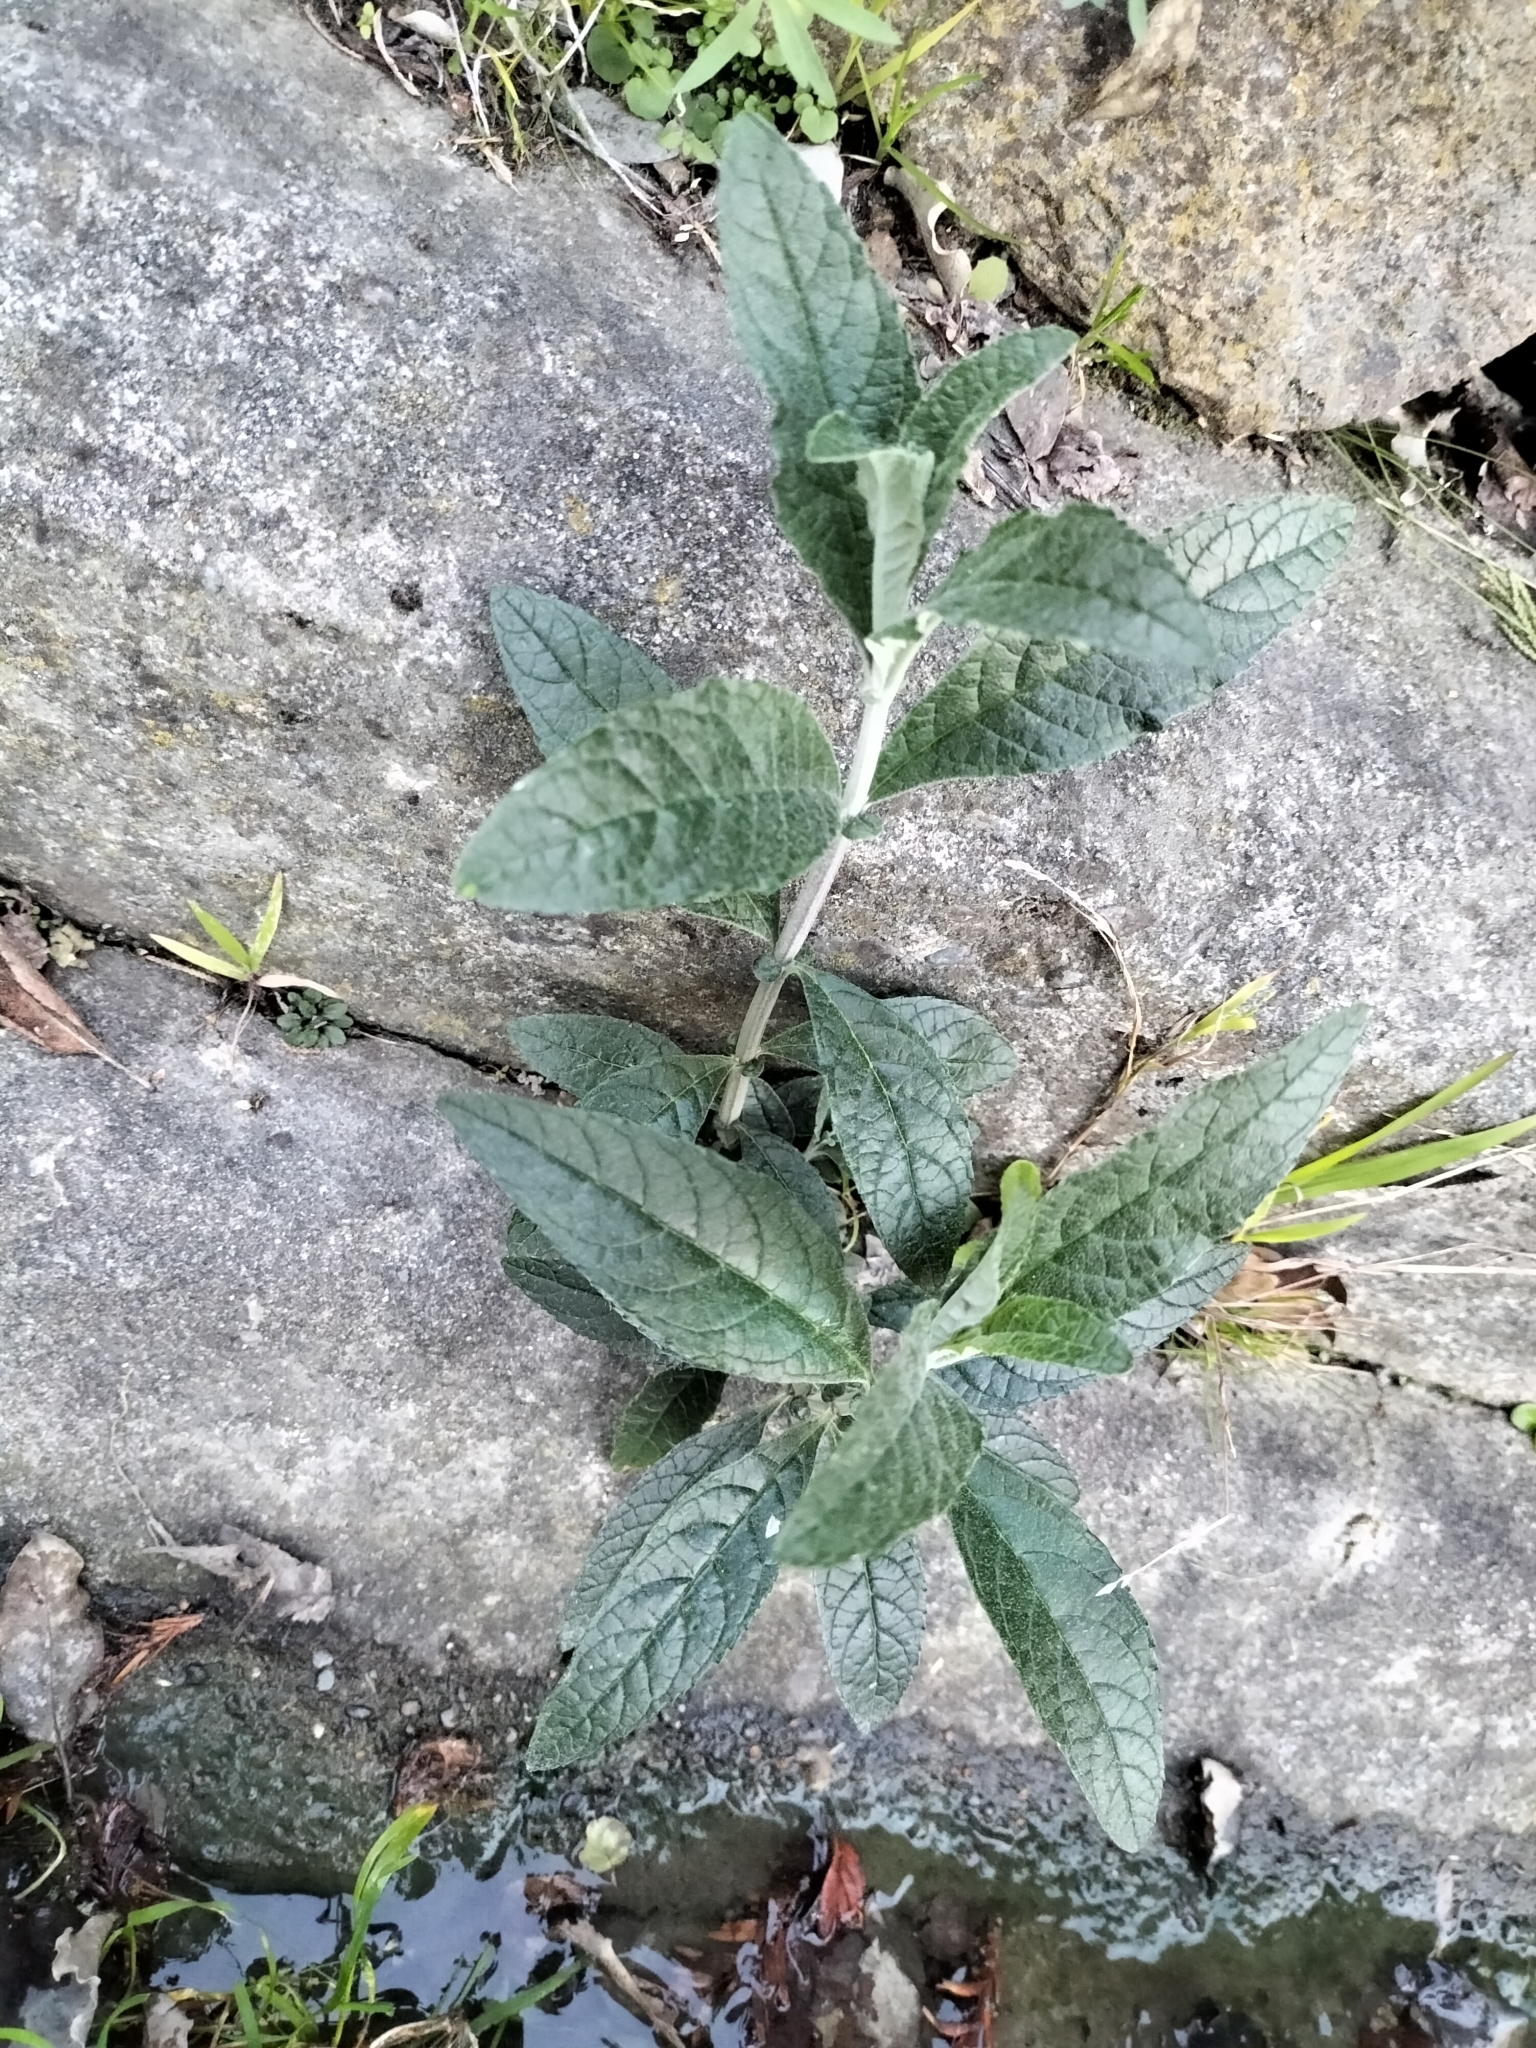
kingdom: Plantae
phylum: Tracheophyta
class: Magnoliopsida
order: Lamiales
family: Scrophulariaceae
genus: Buddleja
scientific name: Buddleja davidii
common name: Butterfly-bush
